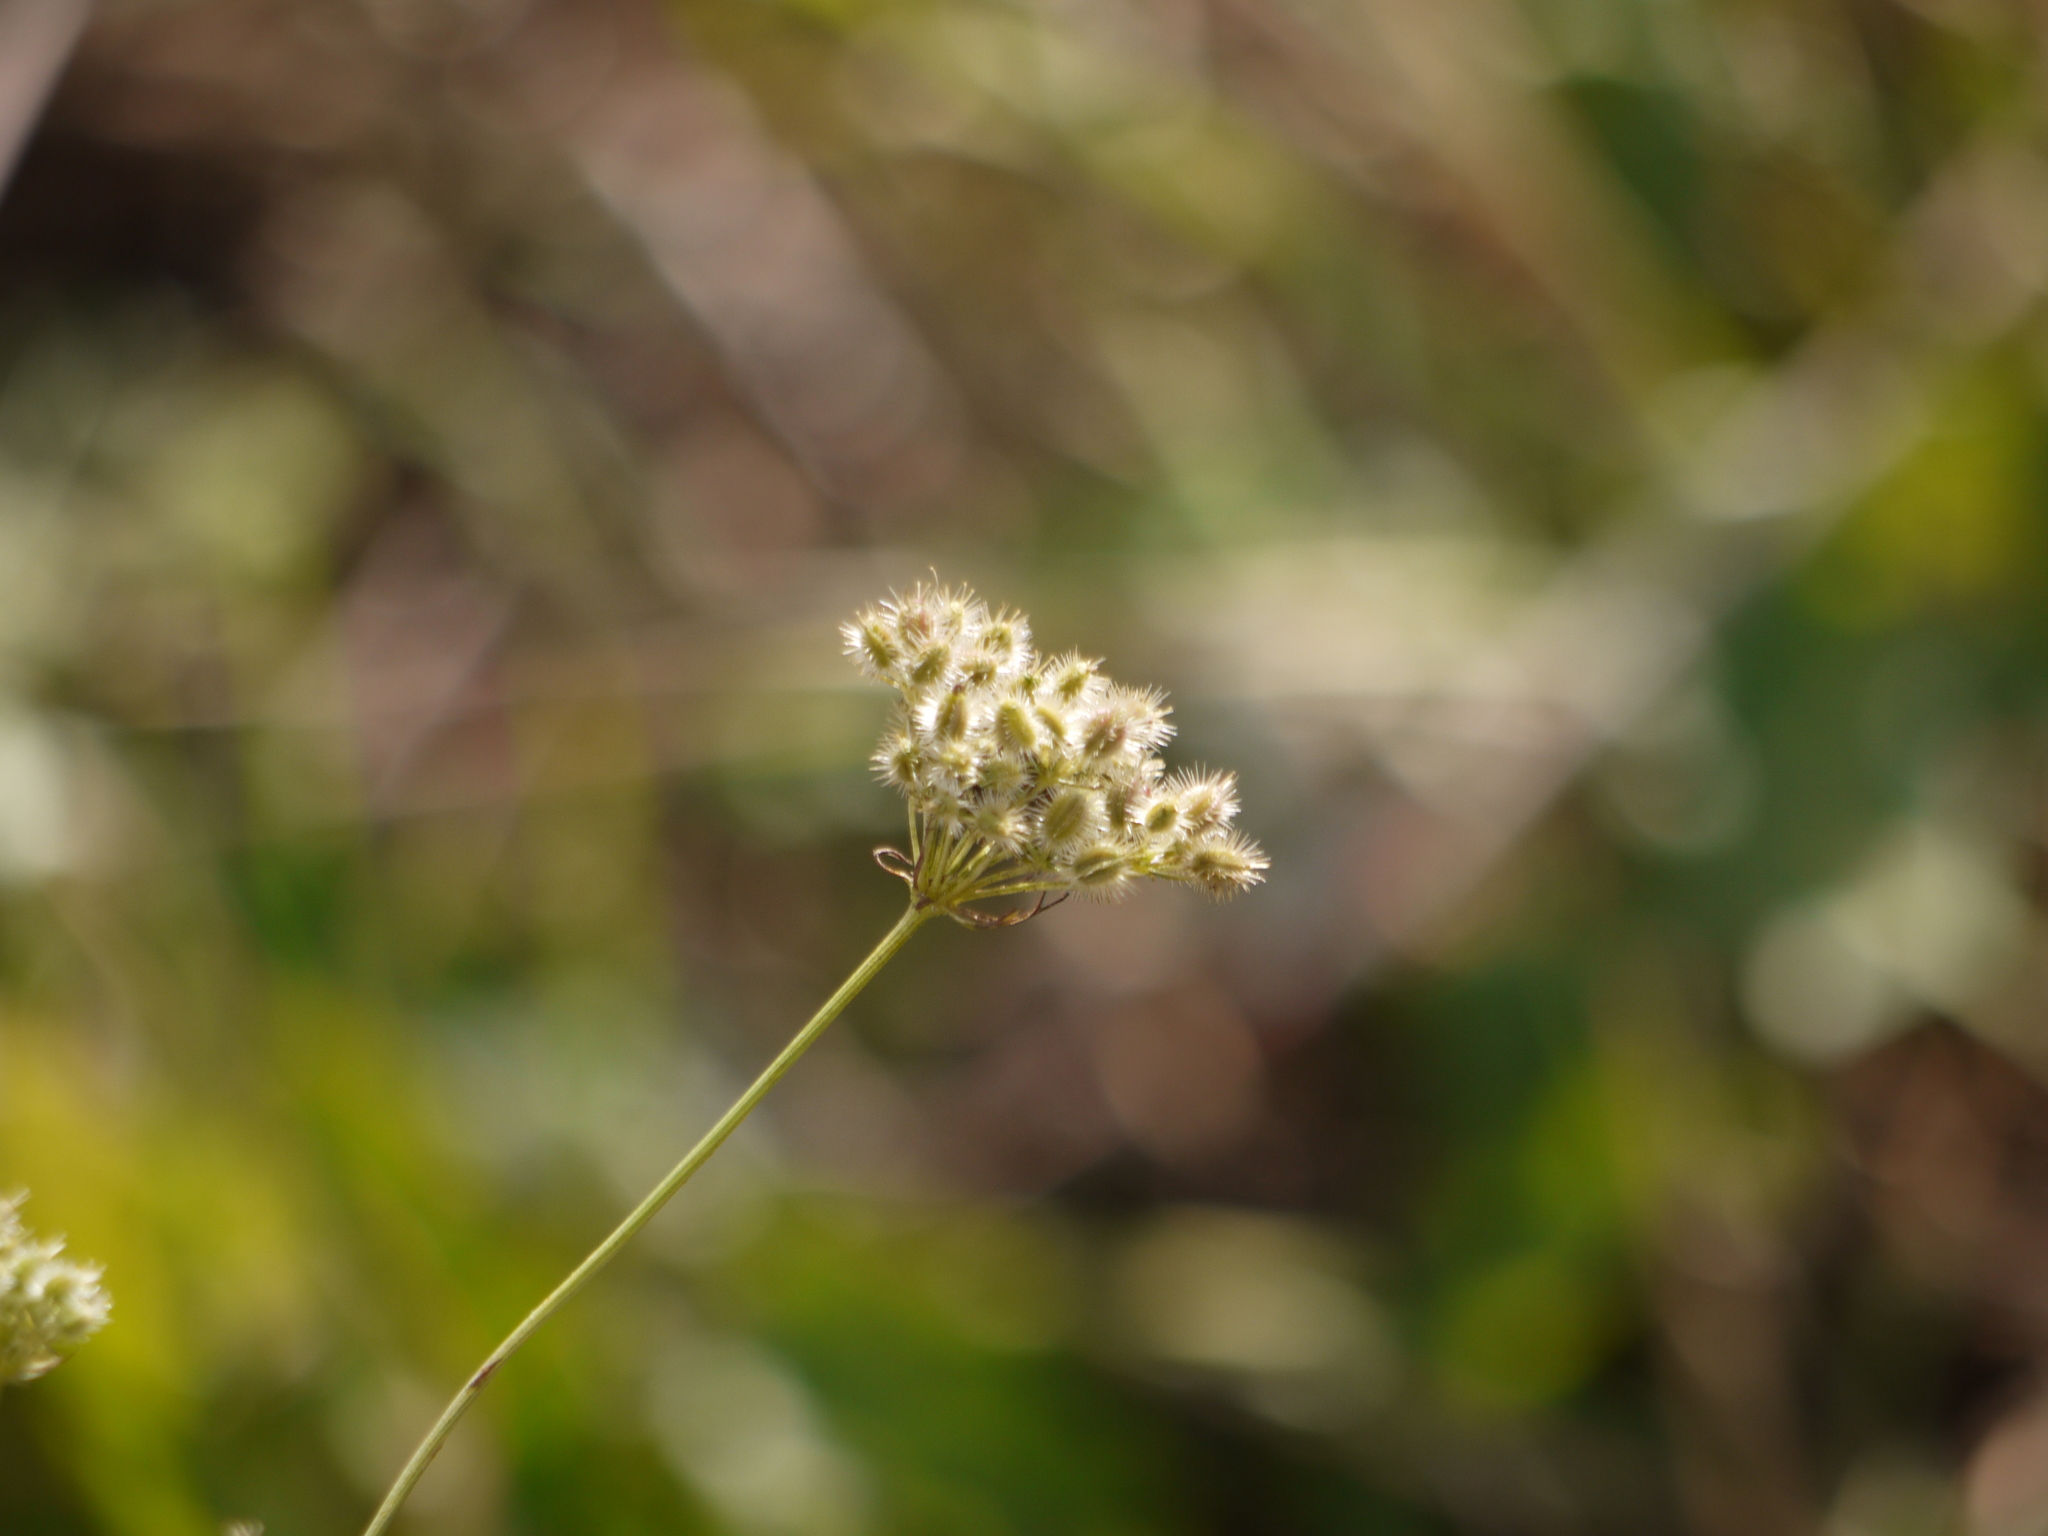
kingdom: Plantae
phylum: Tracheophyta
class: Magnoliopsida
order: Apiales
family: Apiaceae
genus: Daucus
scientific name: Daucus carota
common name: Wild carrot
